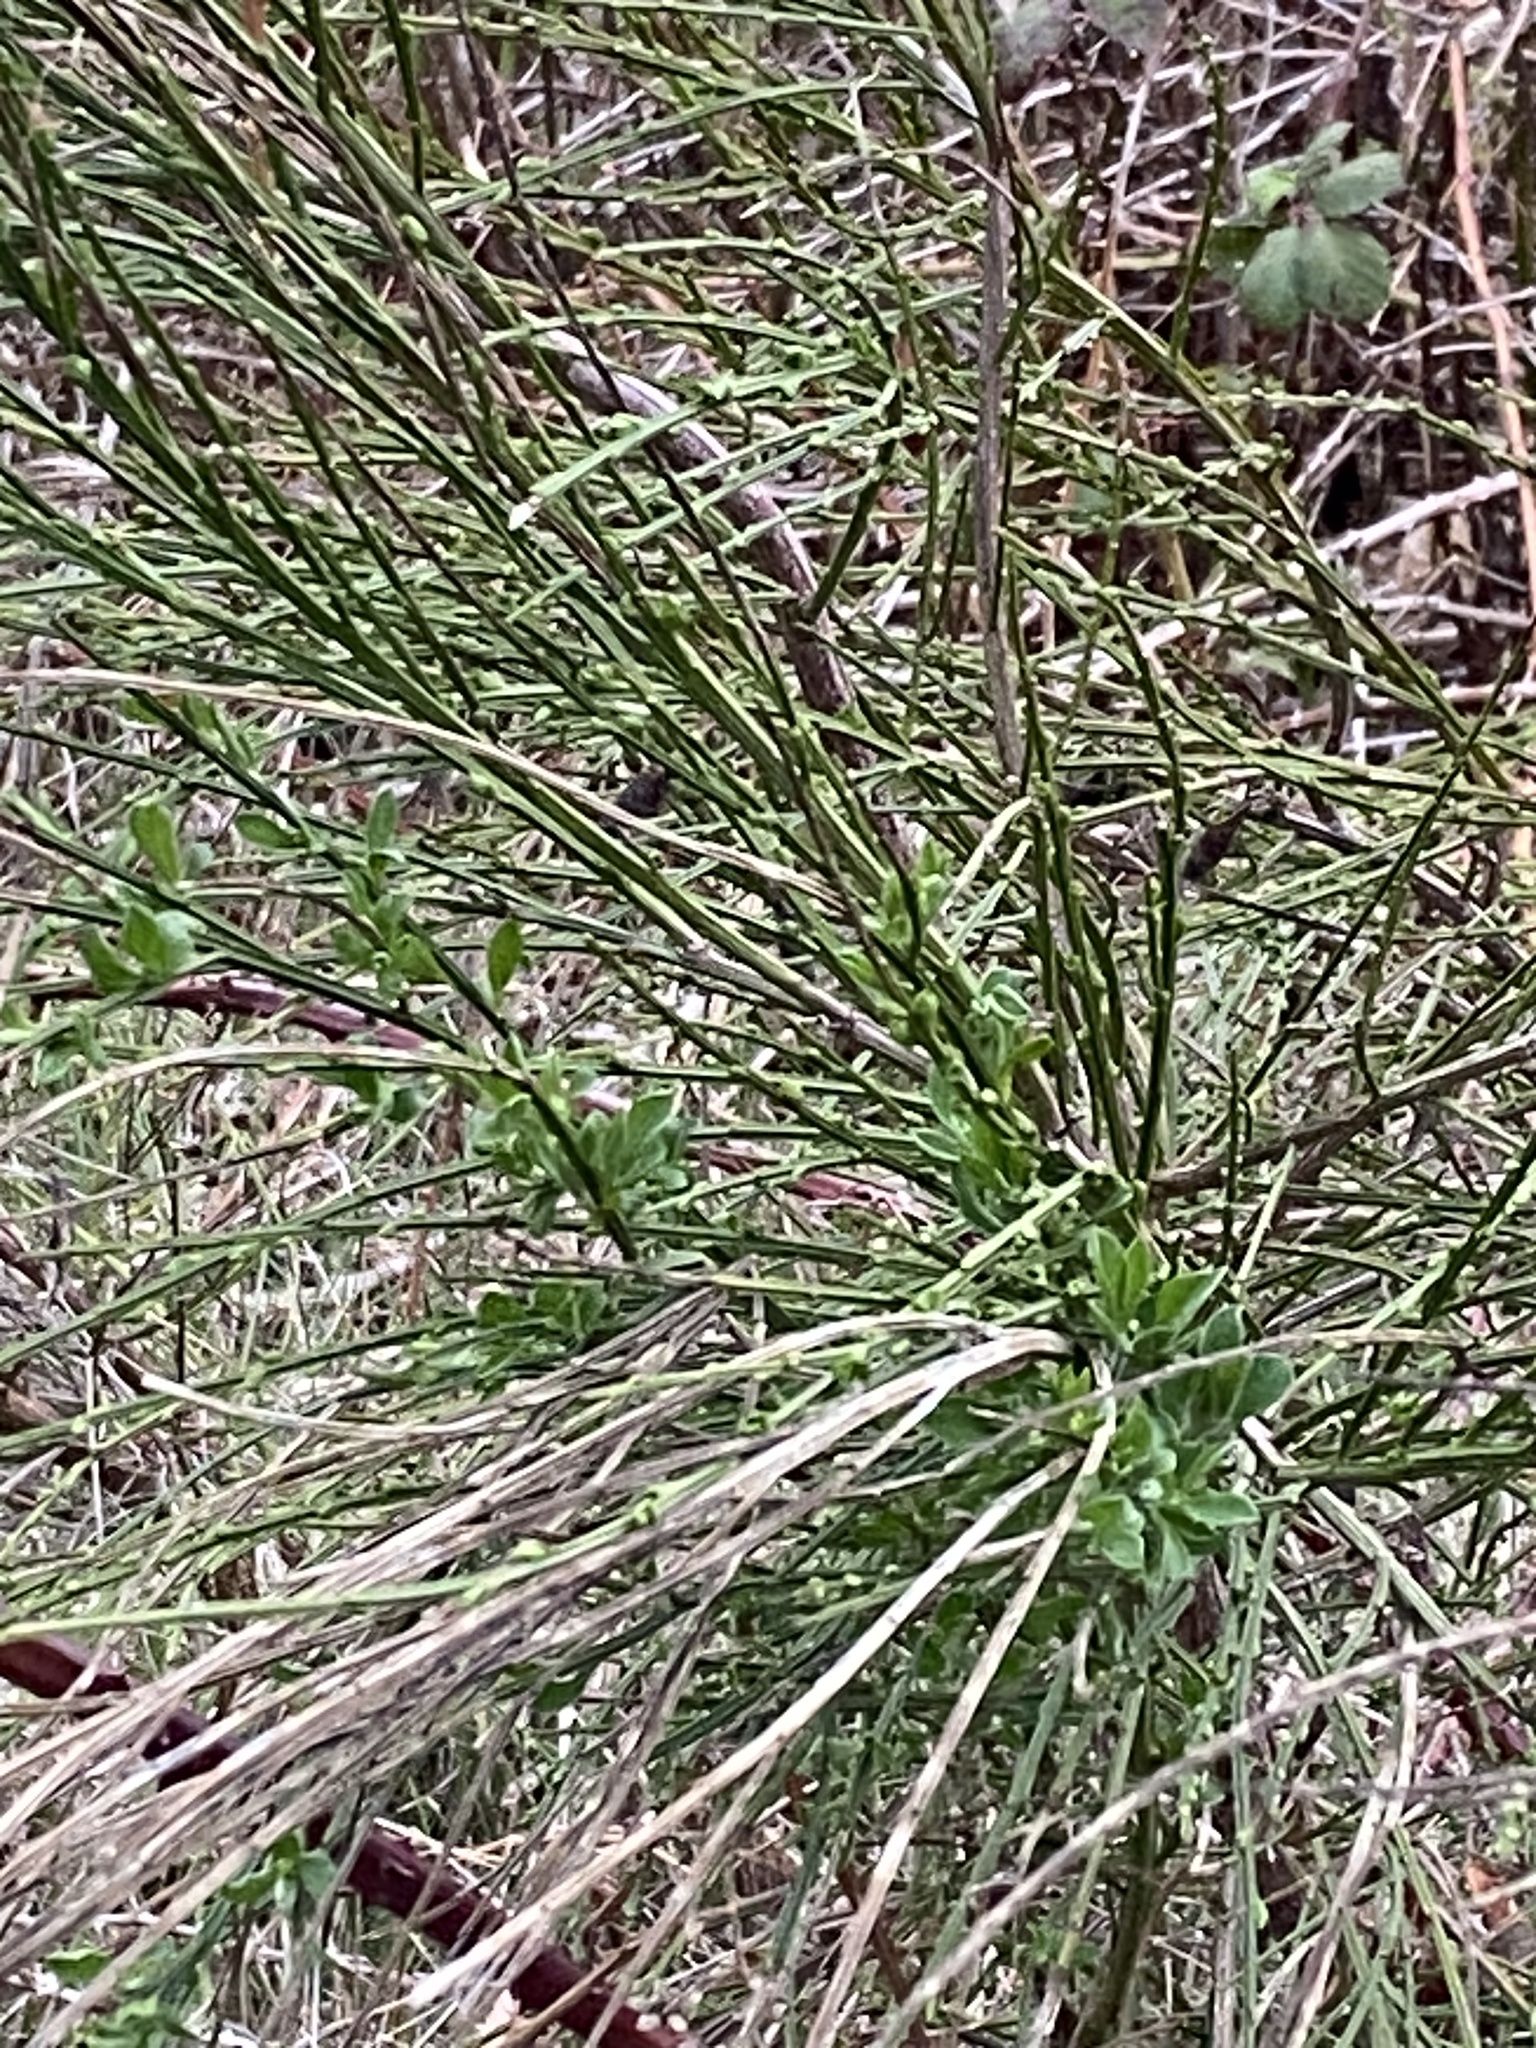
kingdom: Plantae
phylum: Tracheophyta
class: Magnoliopsida
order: Fabales
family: Fabaceae
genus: Cytisus
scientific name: Cytisus scoparius
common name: Scotch broom
